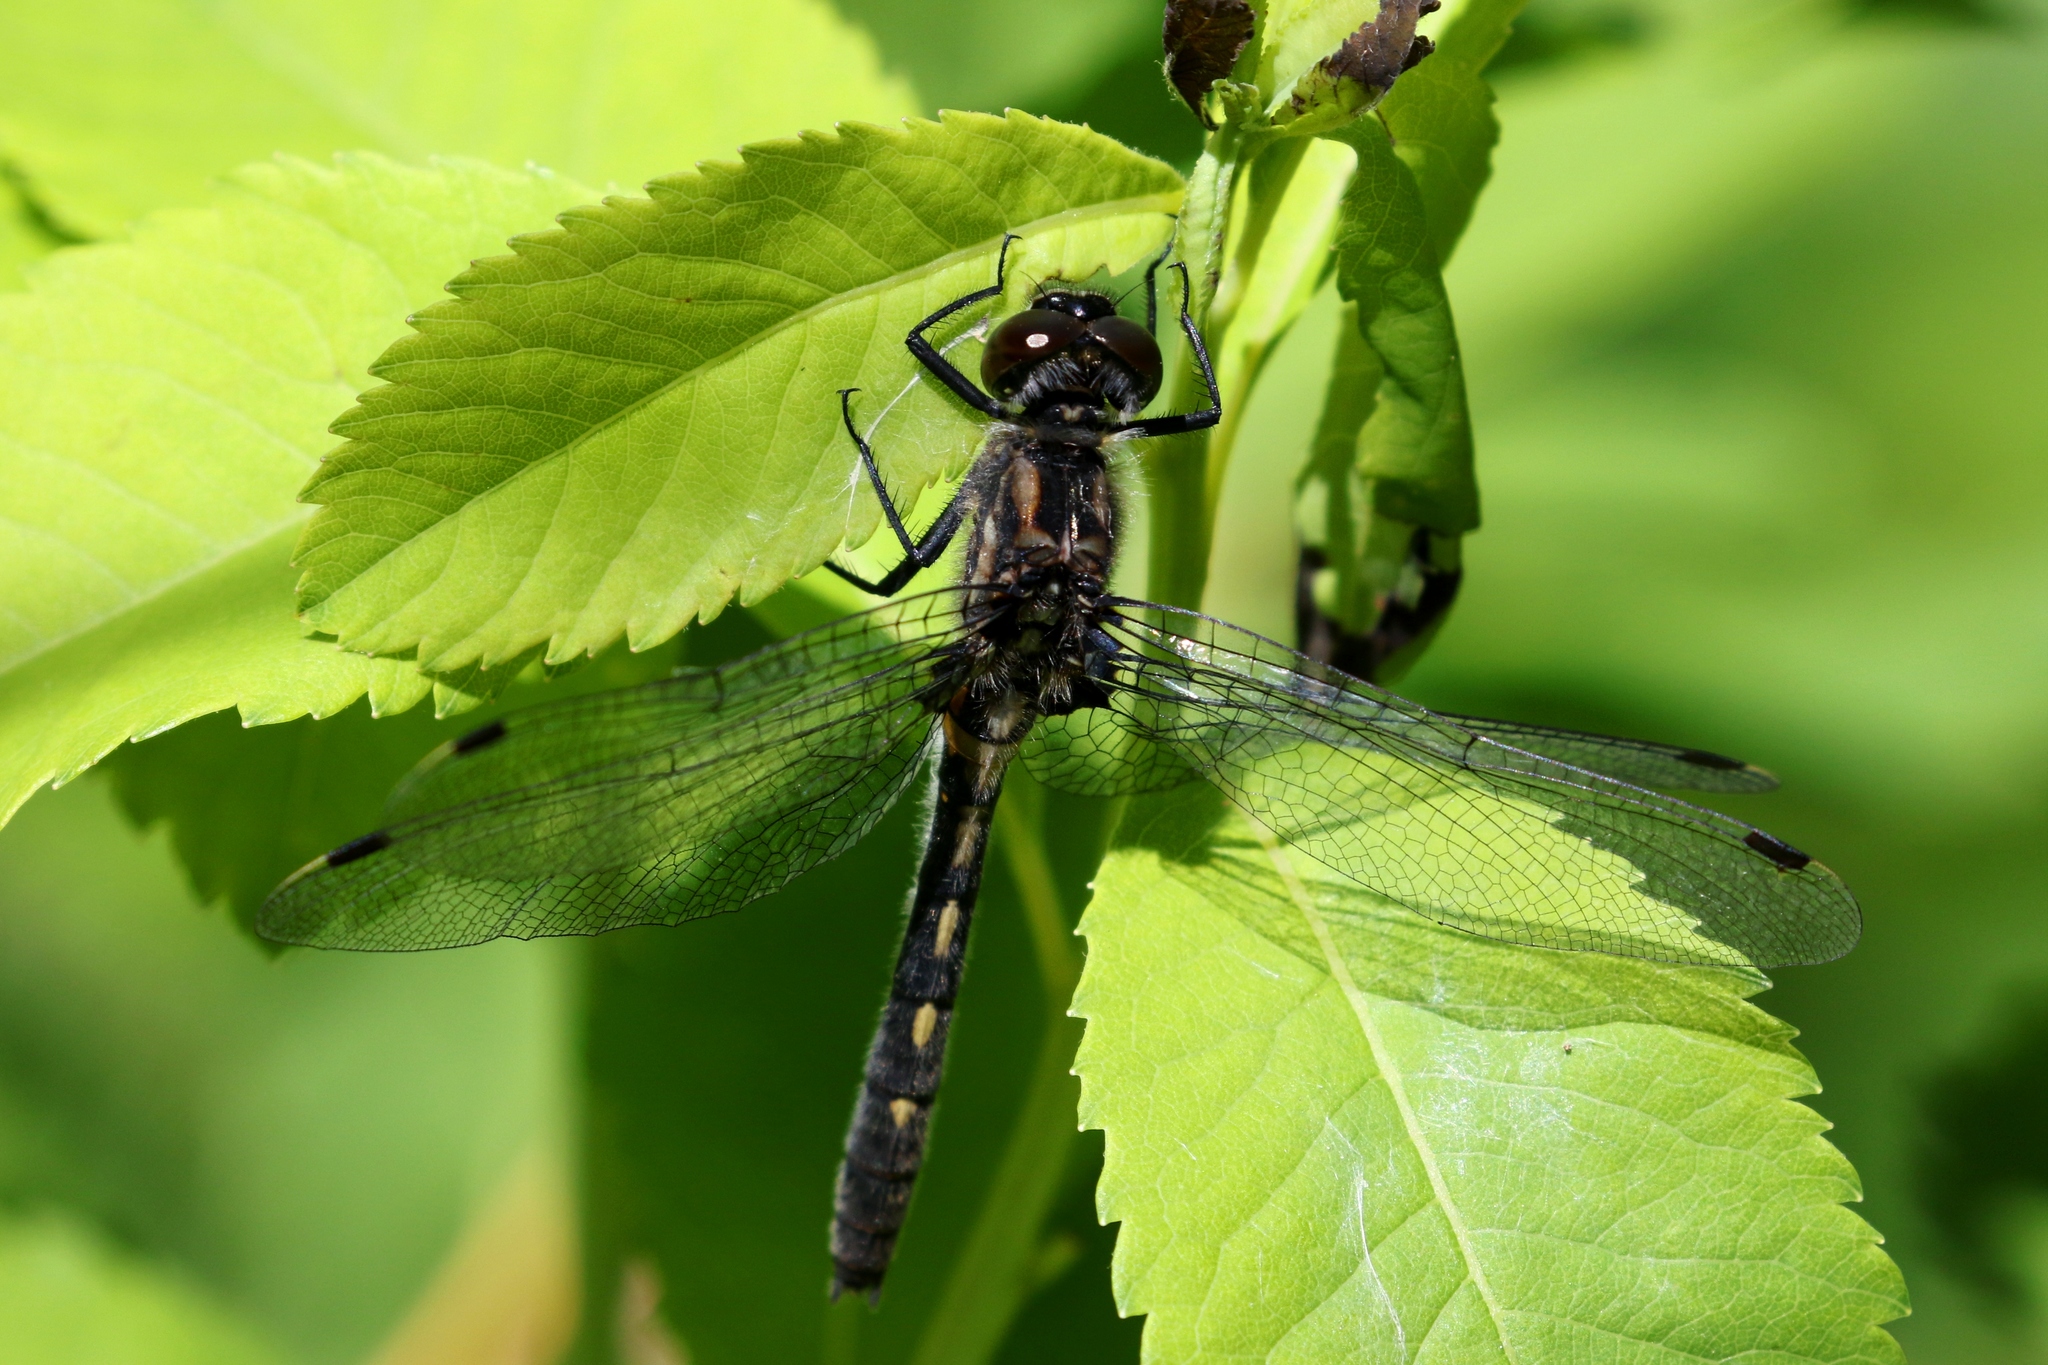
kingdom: Animalia
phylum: Arthropoda
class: Insecta
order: Odonata
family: Libellulidae
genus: Leucorrhinia
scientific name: Leucorrhinia glacialis
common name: Crimson-ringed whiteface
